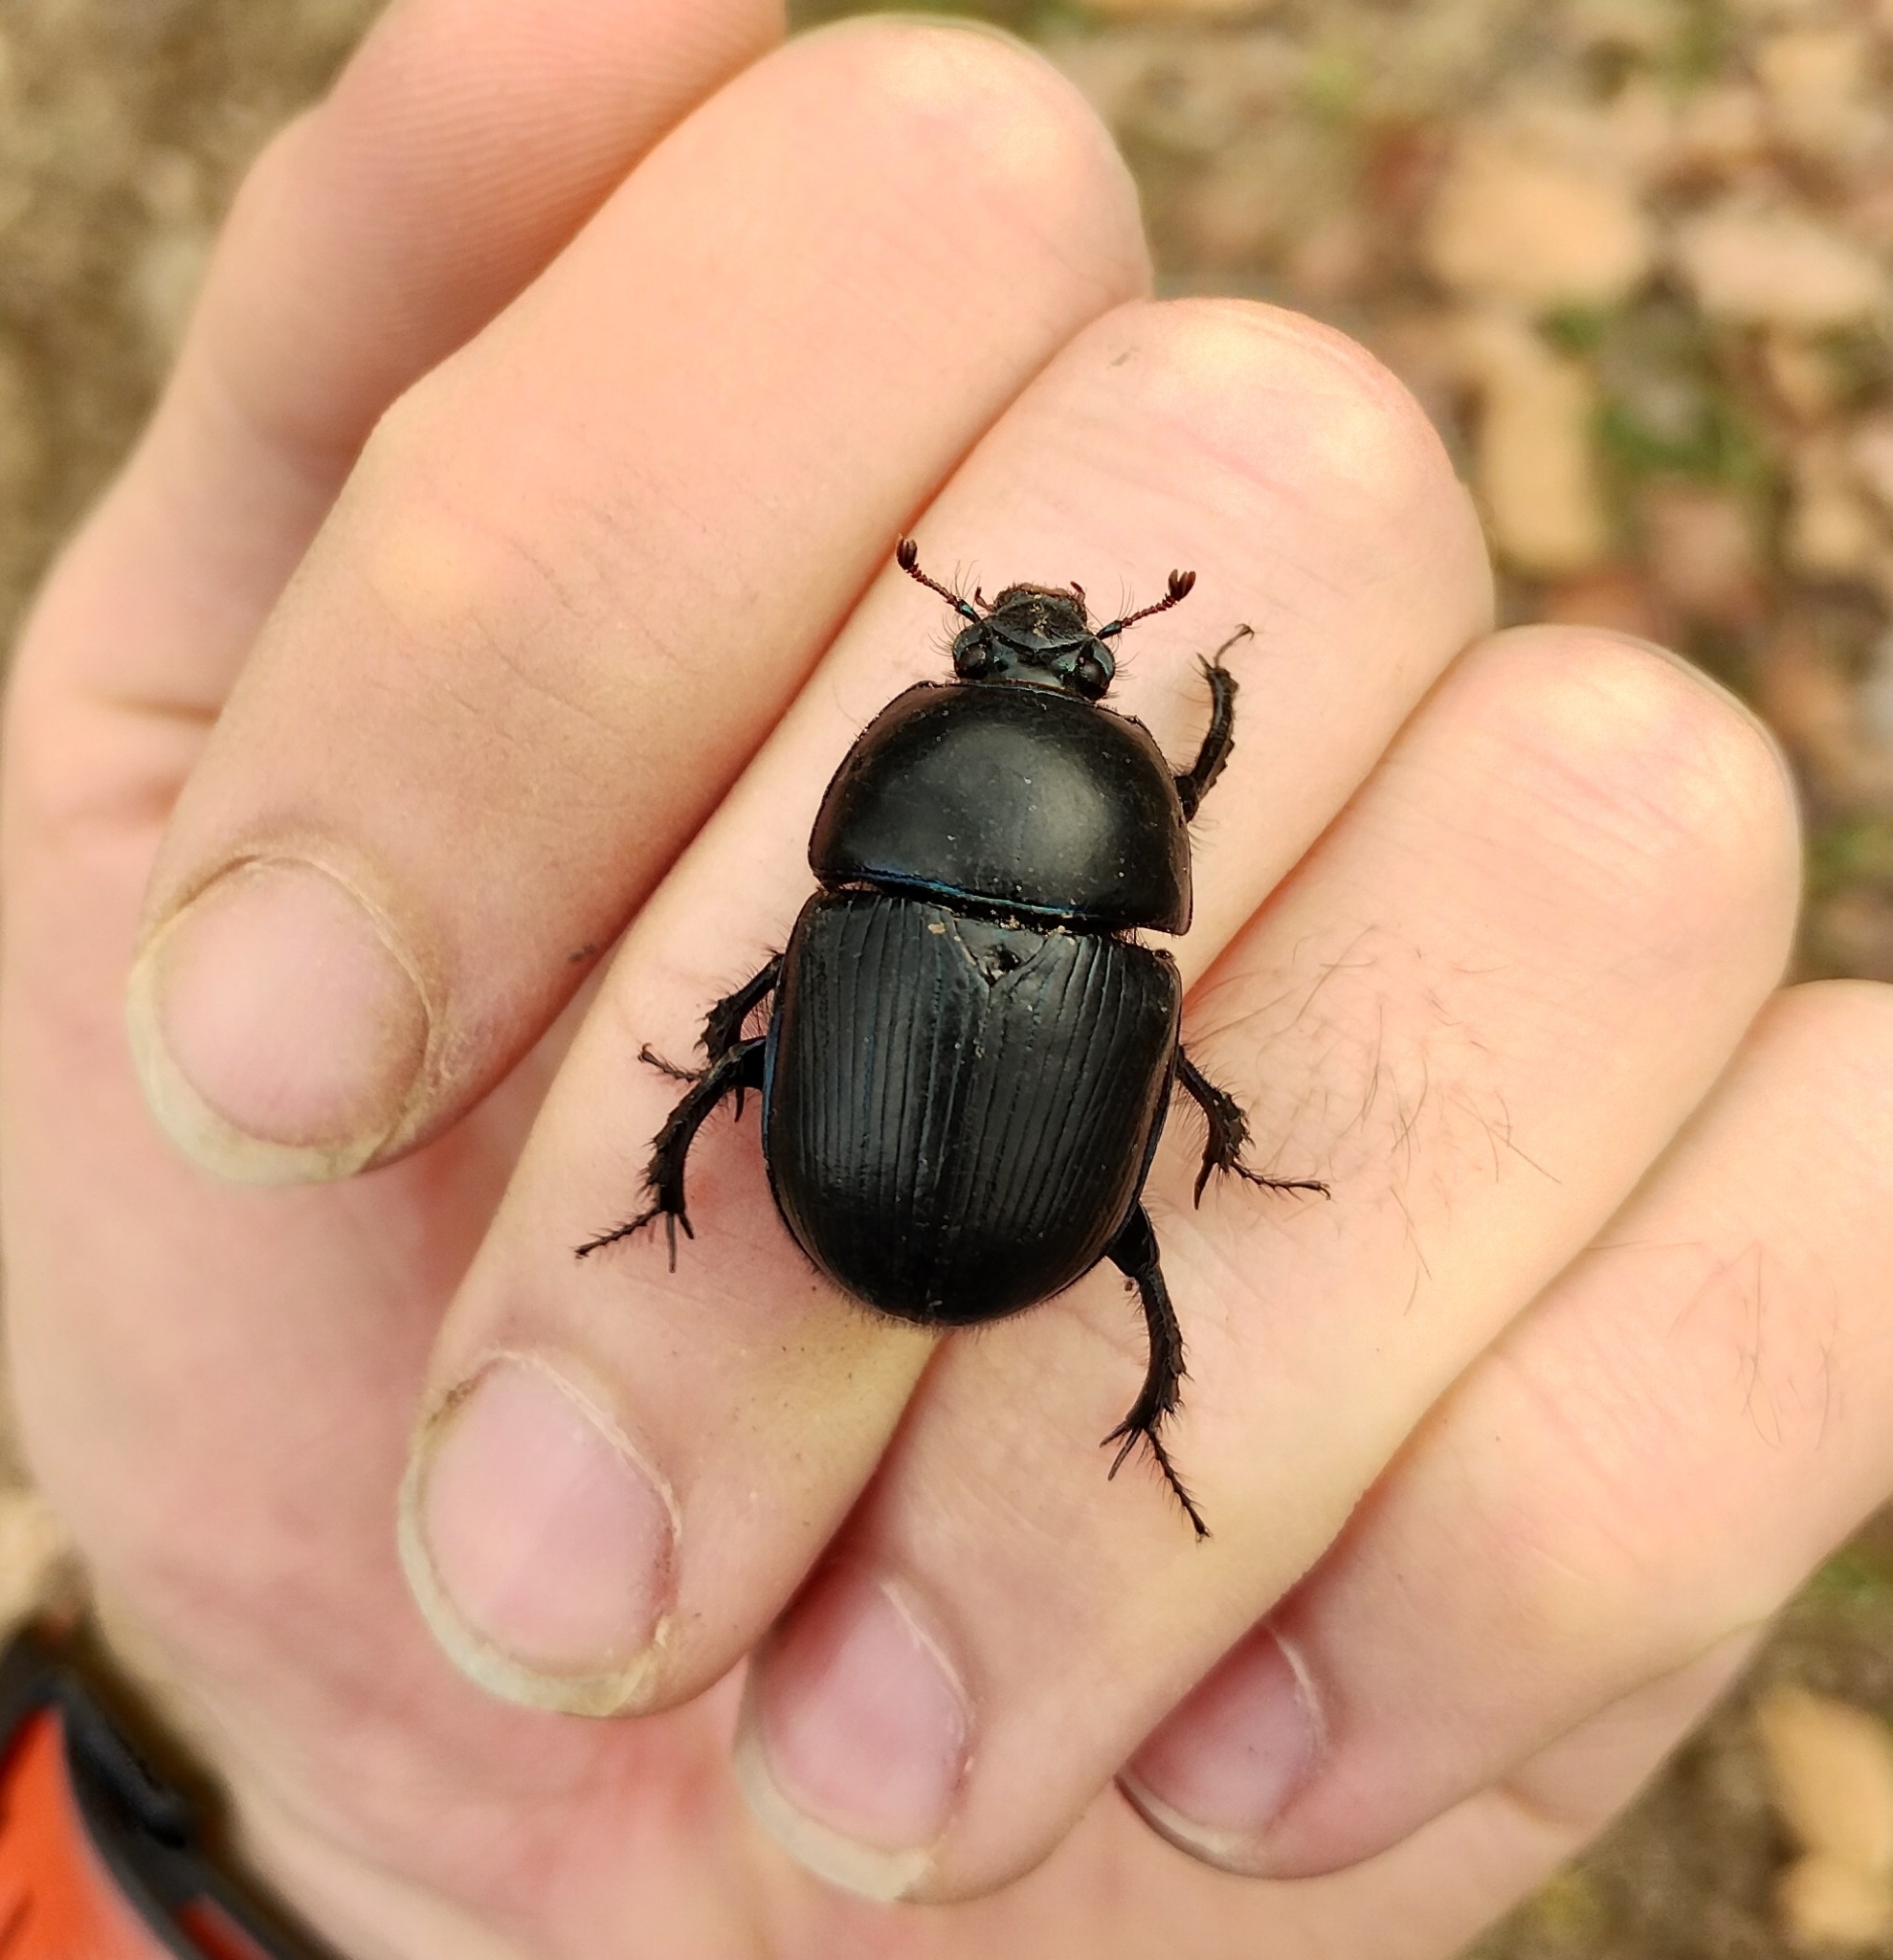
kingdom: Animalia
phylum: Arthropoda
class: Insecta
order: Coleoptera
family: Geotrupidae
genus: Geotrupes
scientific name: Geotrupes spiniger
